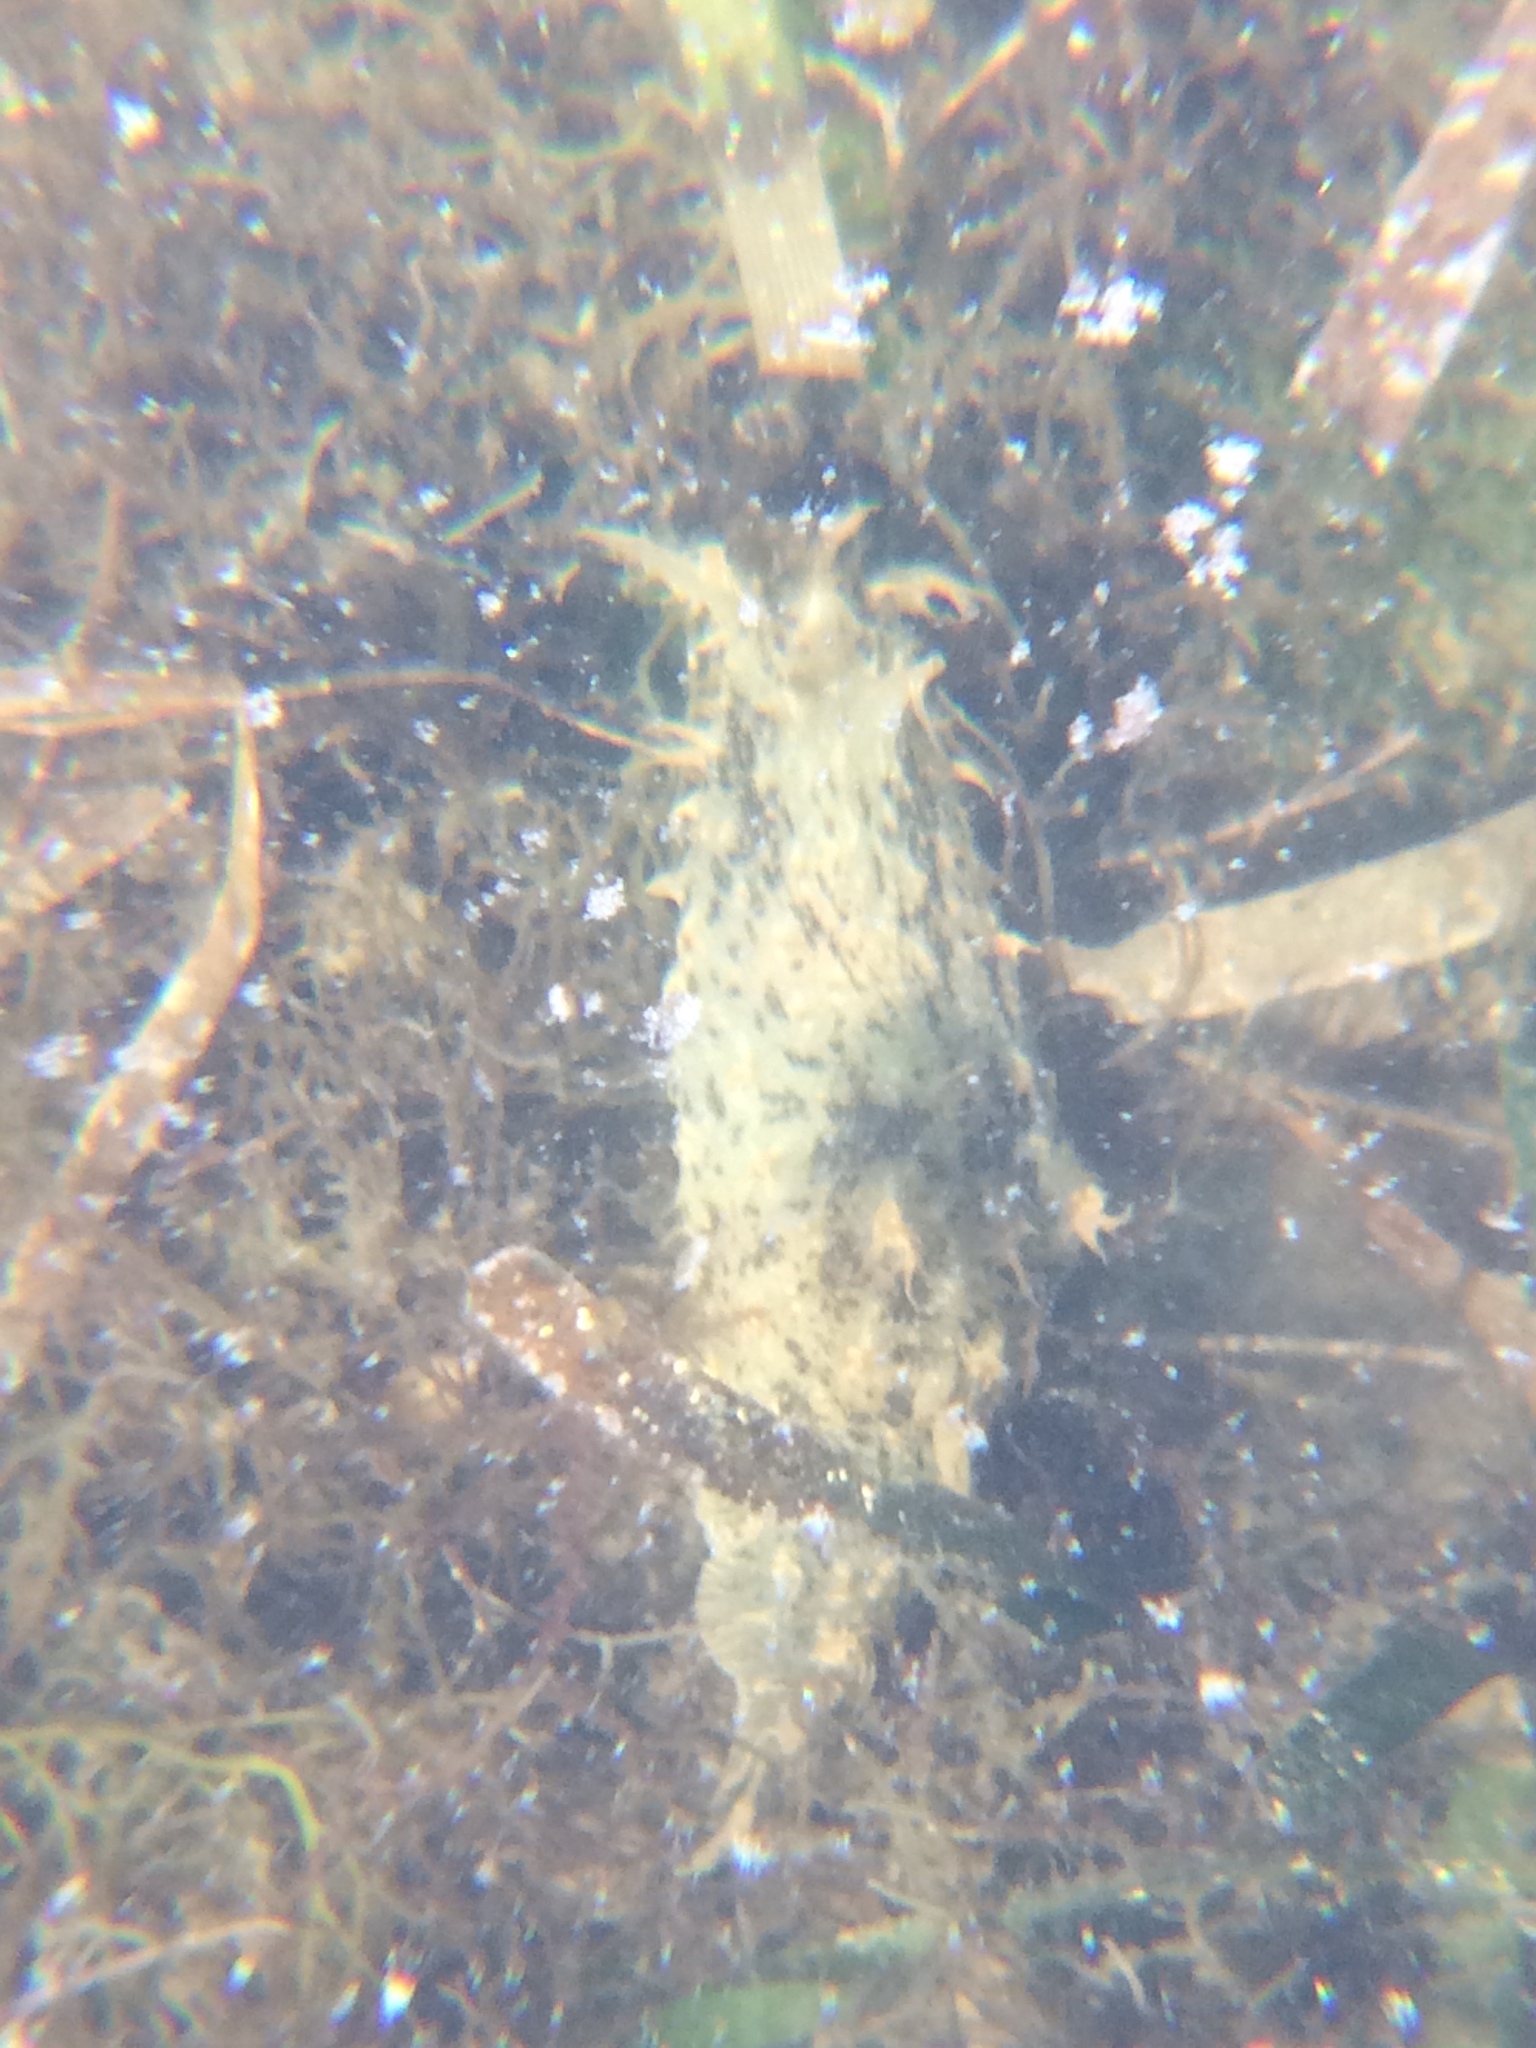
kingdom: Animalia
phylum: Mollusca
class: Gastropoda
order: Aplysiida
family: Aplysiidae
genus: Bursatella
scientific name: Bursatella leachii
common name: Shaggy sea hare
